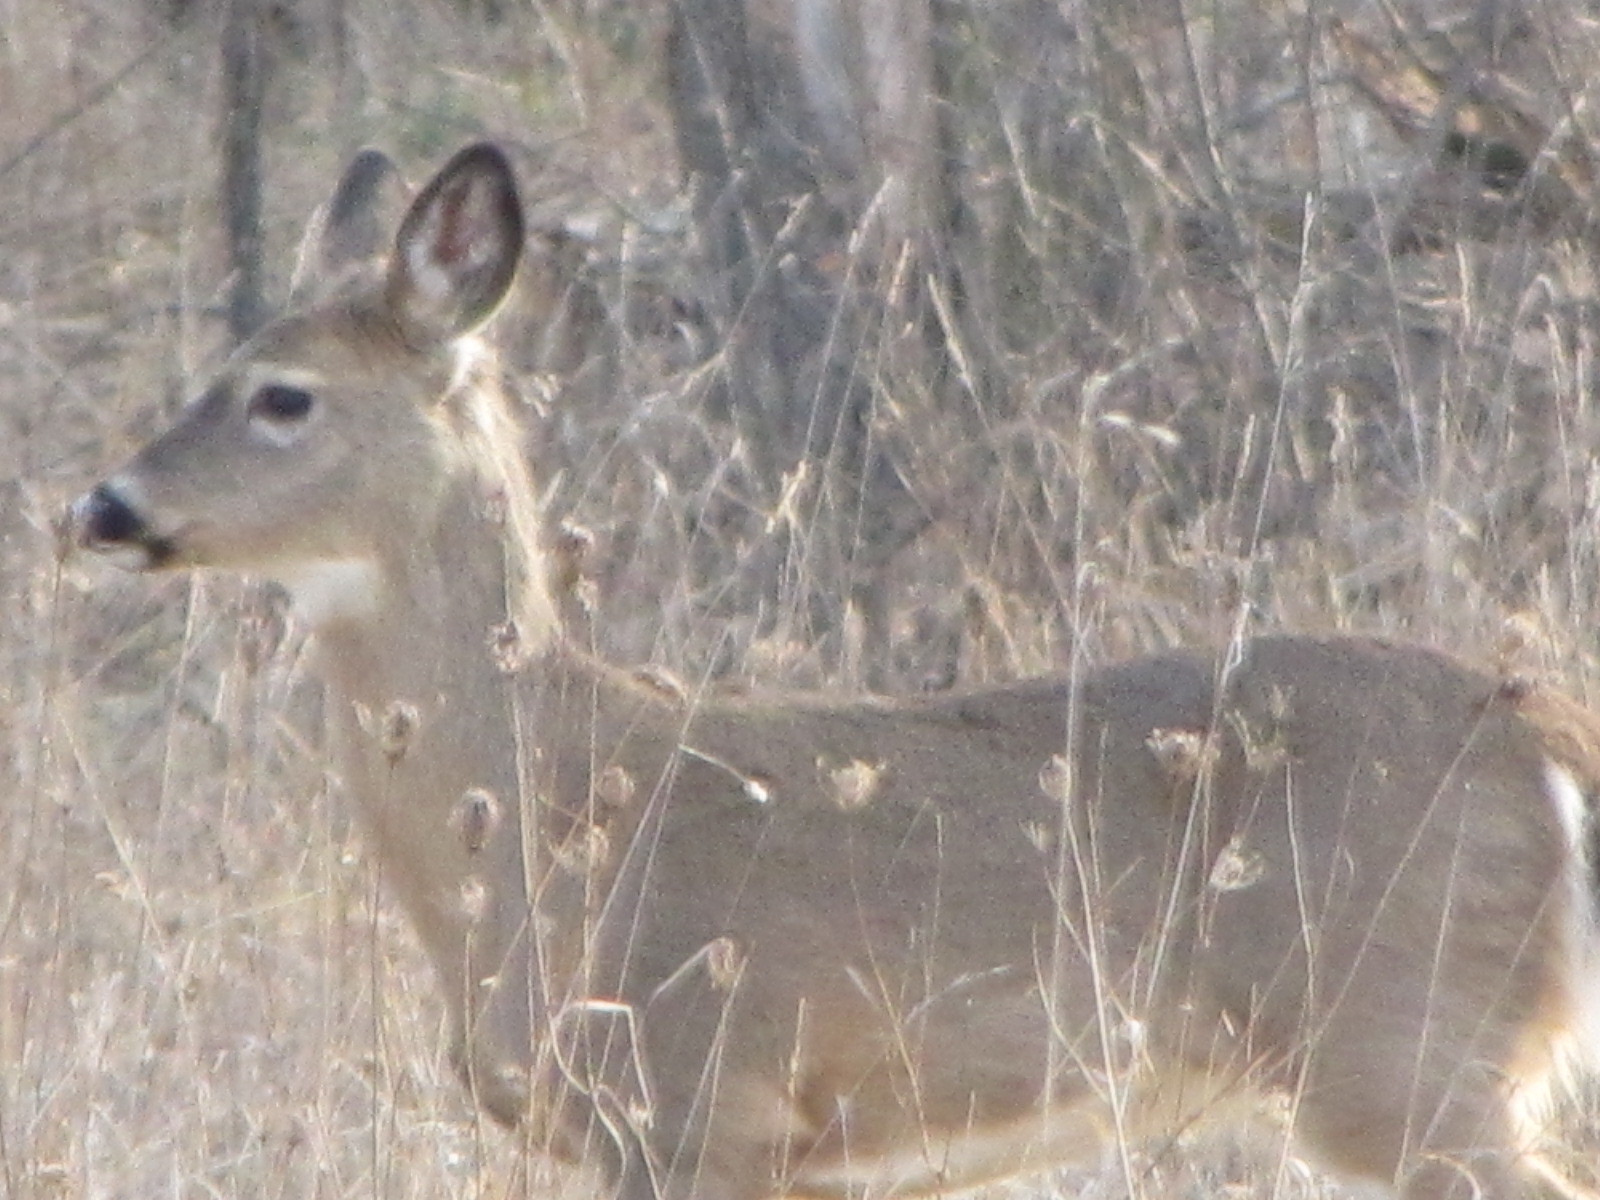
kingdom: Animalia
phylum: Chordata
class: Mammalia
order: Artiodactyla
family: Cervidae
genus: Odocoileus
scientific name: Odocoileus virginianus
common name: White-tailed deer
